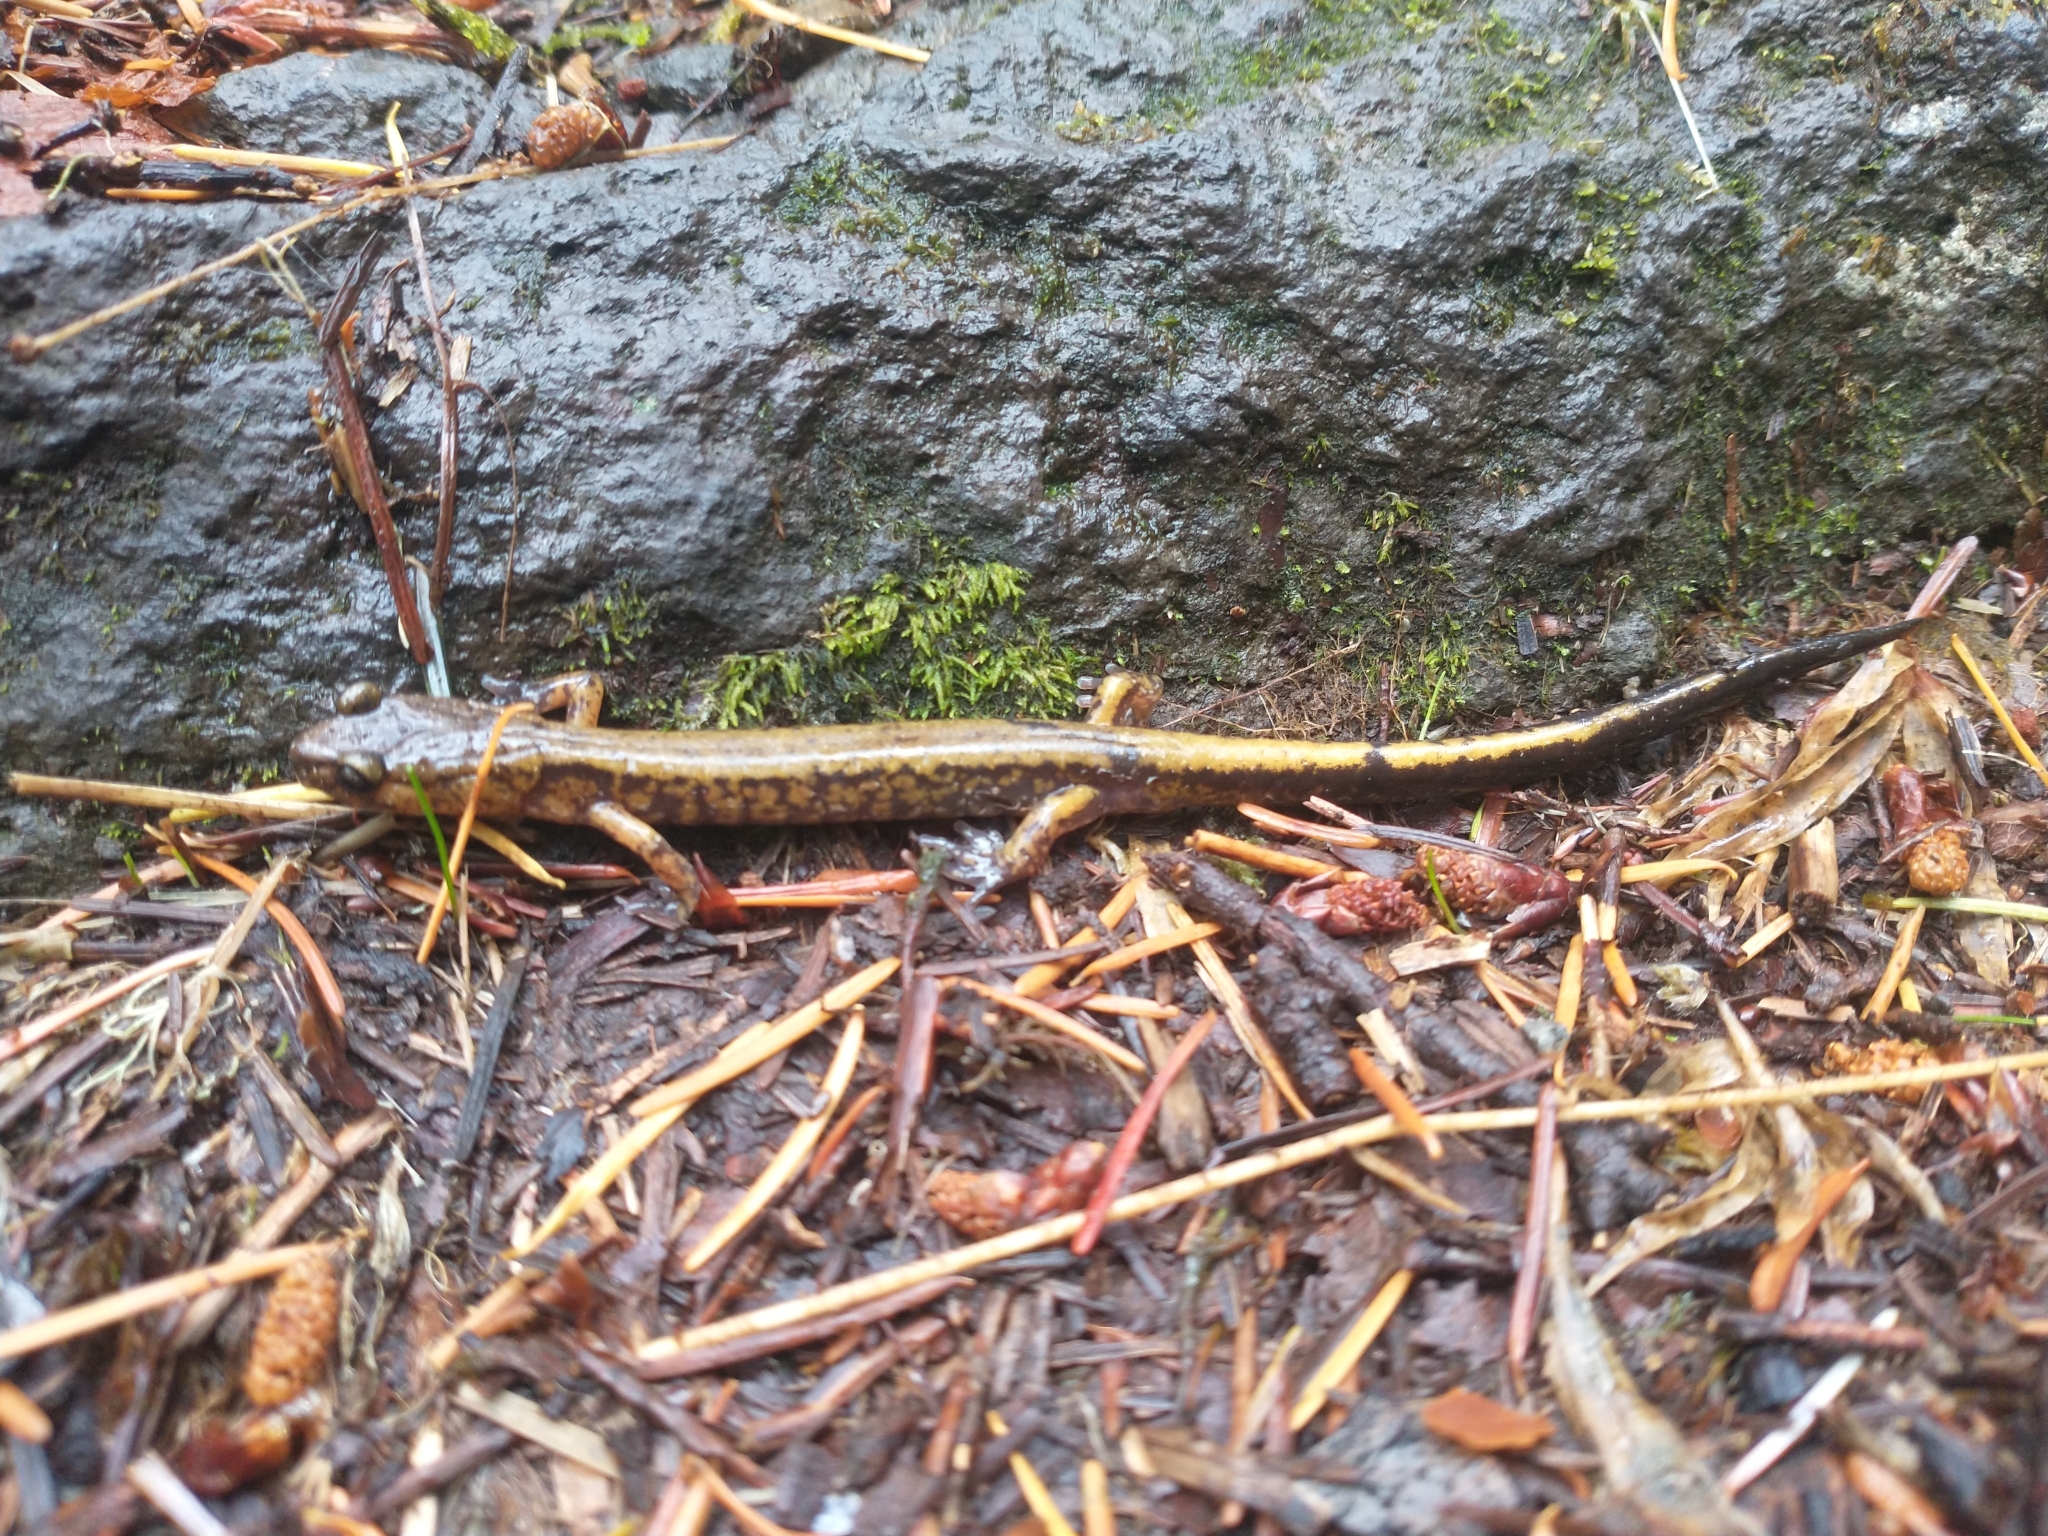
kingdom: Animalia
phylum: Chordata
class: Amphibia
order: Caudata
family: Plethodontidae
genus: Plethodon
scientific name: Plethodon dunni
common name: Dunn's salamander
